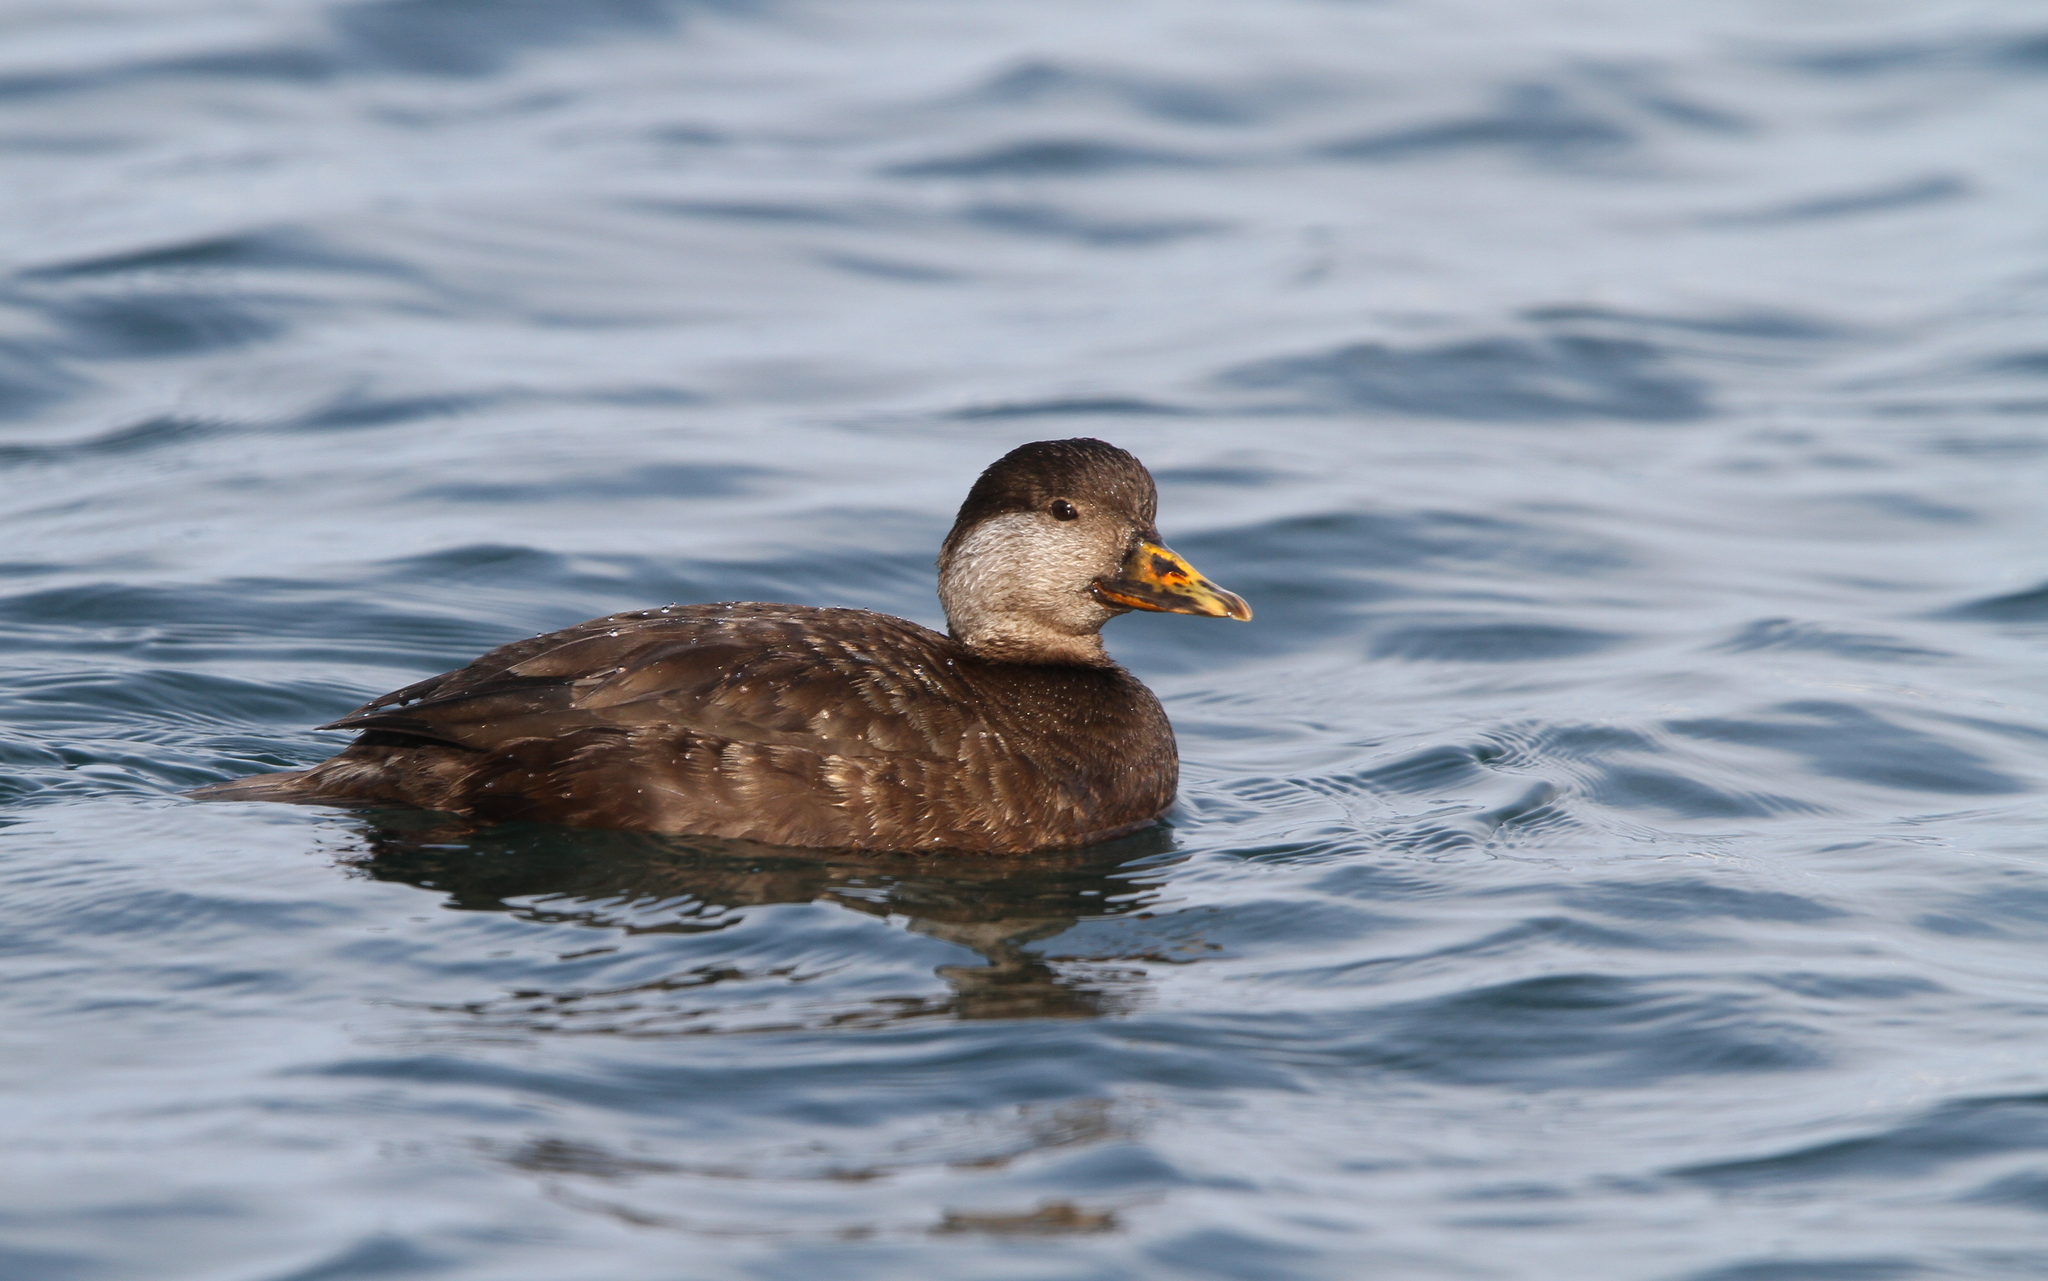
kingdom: Animalia
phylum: Chordata
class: Aves
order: Anseriformes
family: Anatidae
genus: Melanitta
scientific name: Melanitta americana
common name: Black scoter
